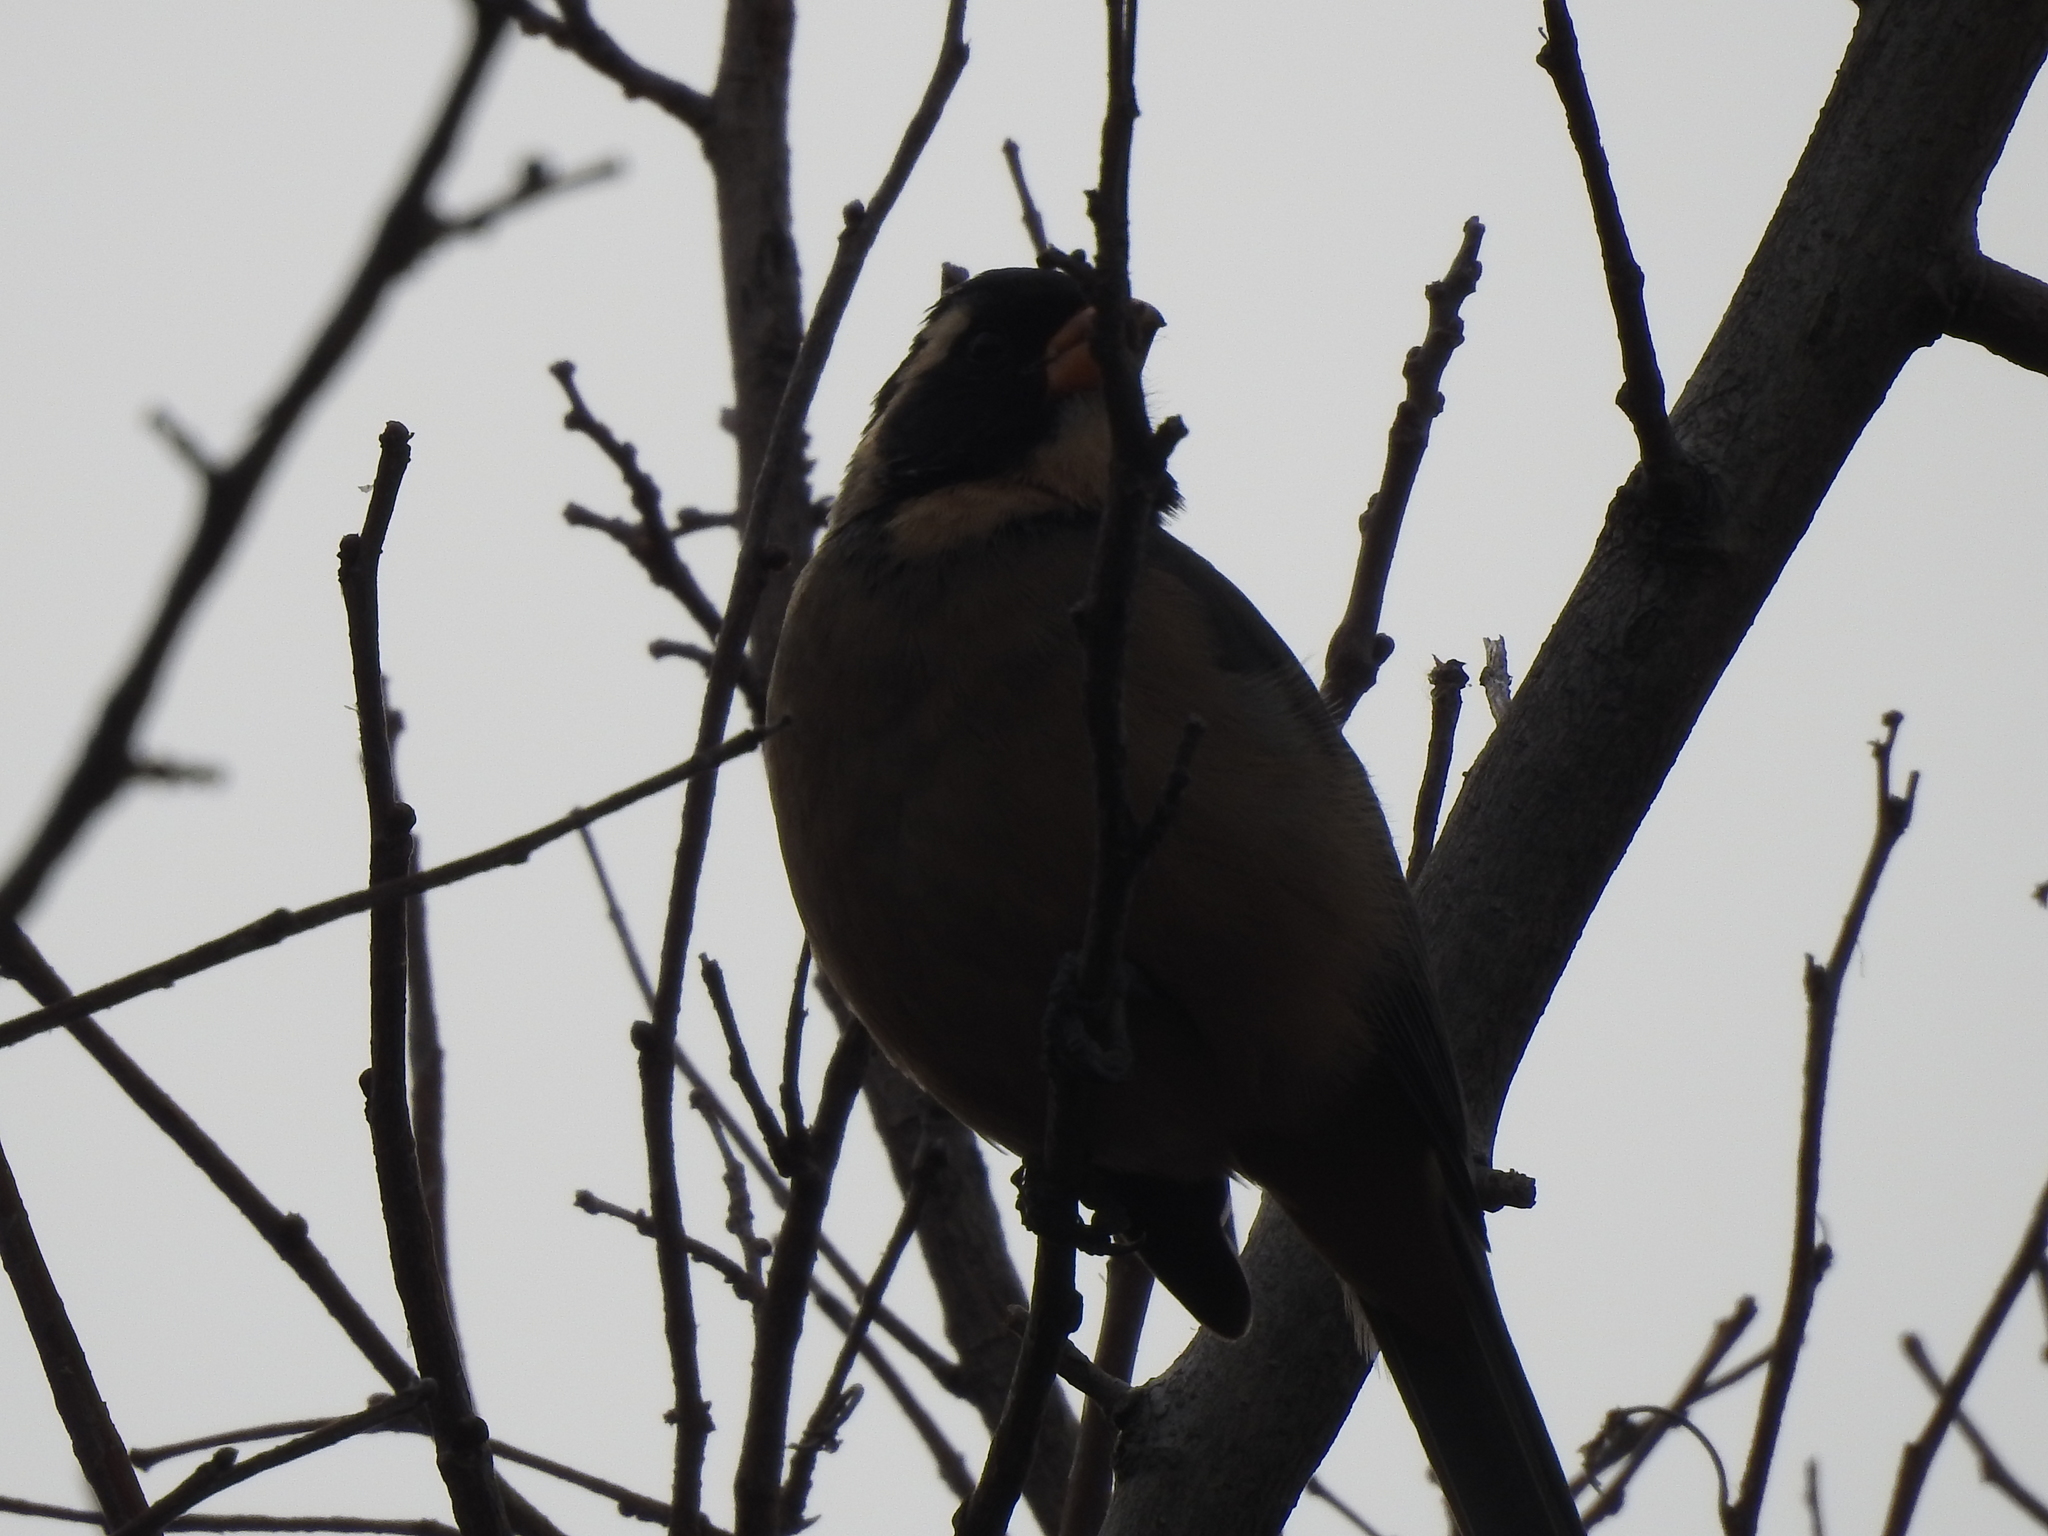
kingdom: Animalia
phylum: Chordata
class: Aves
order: Passeriformes
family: Thraupidae
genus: Saltator
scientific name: Saltator aurantiirostris
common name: Golden-billed saltator
